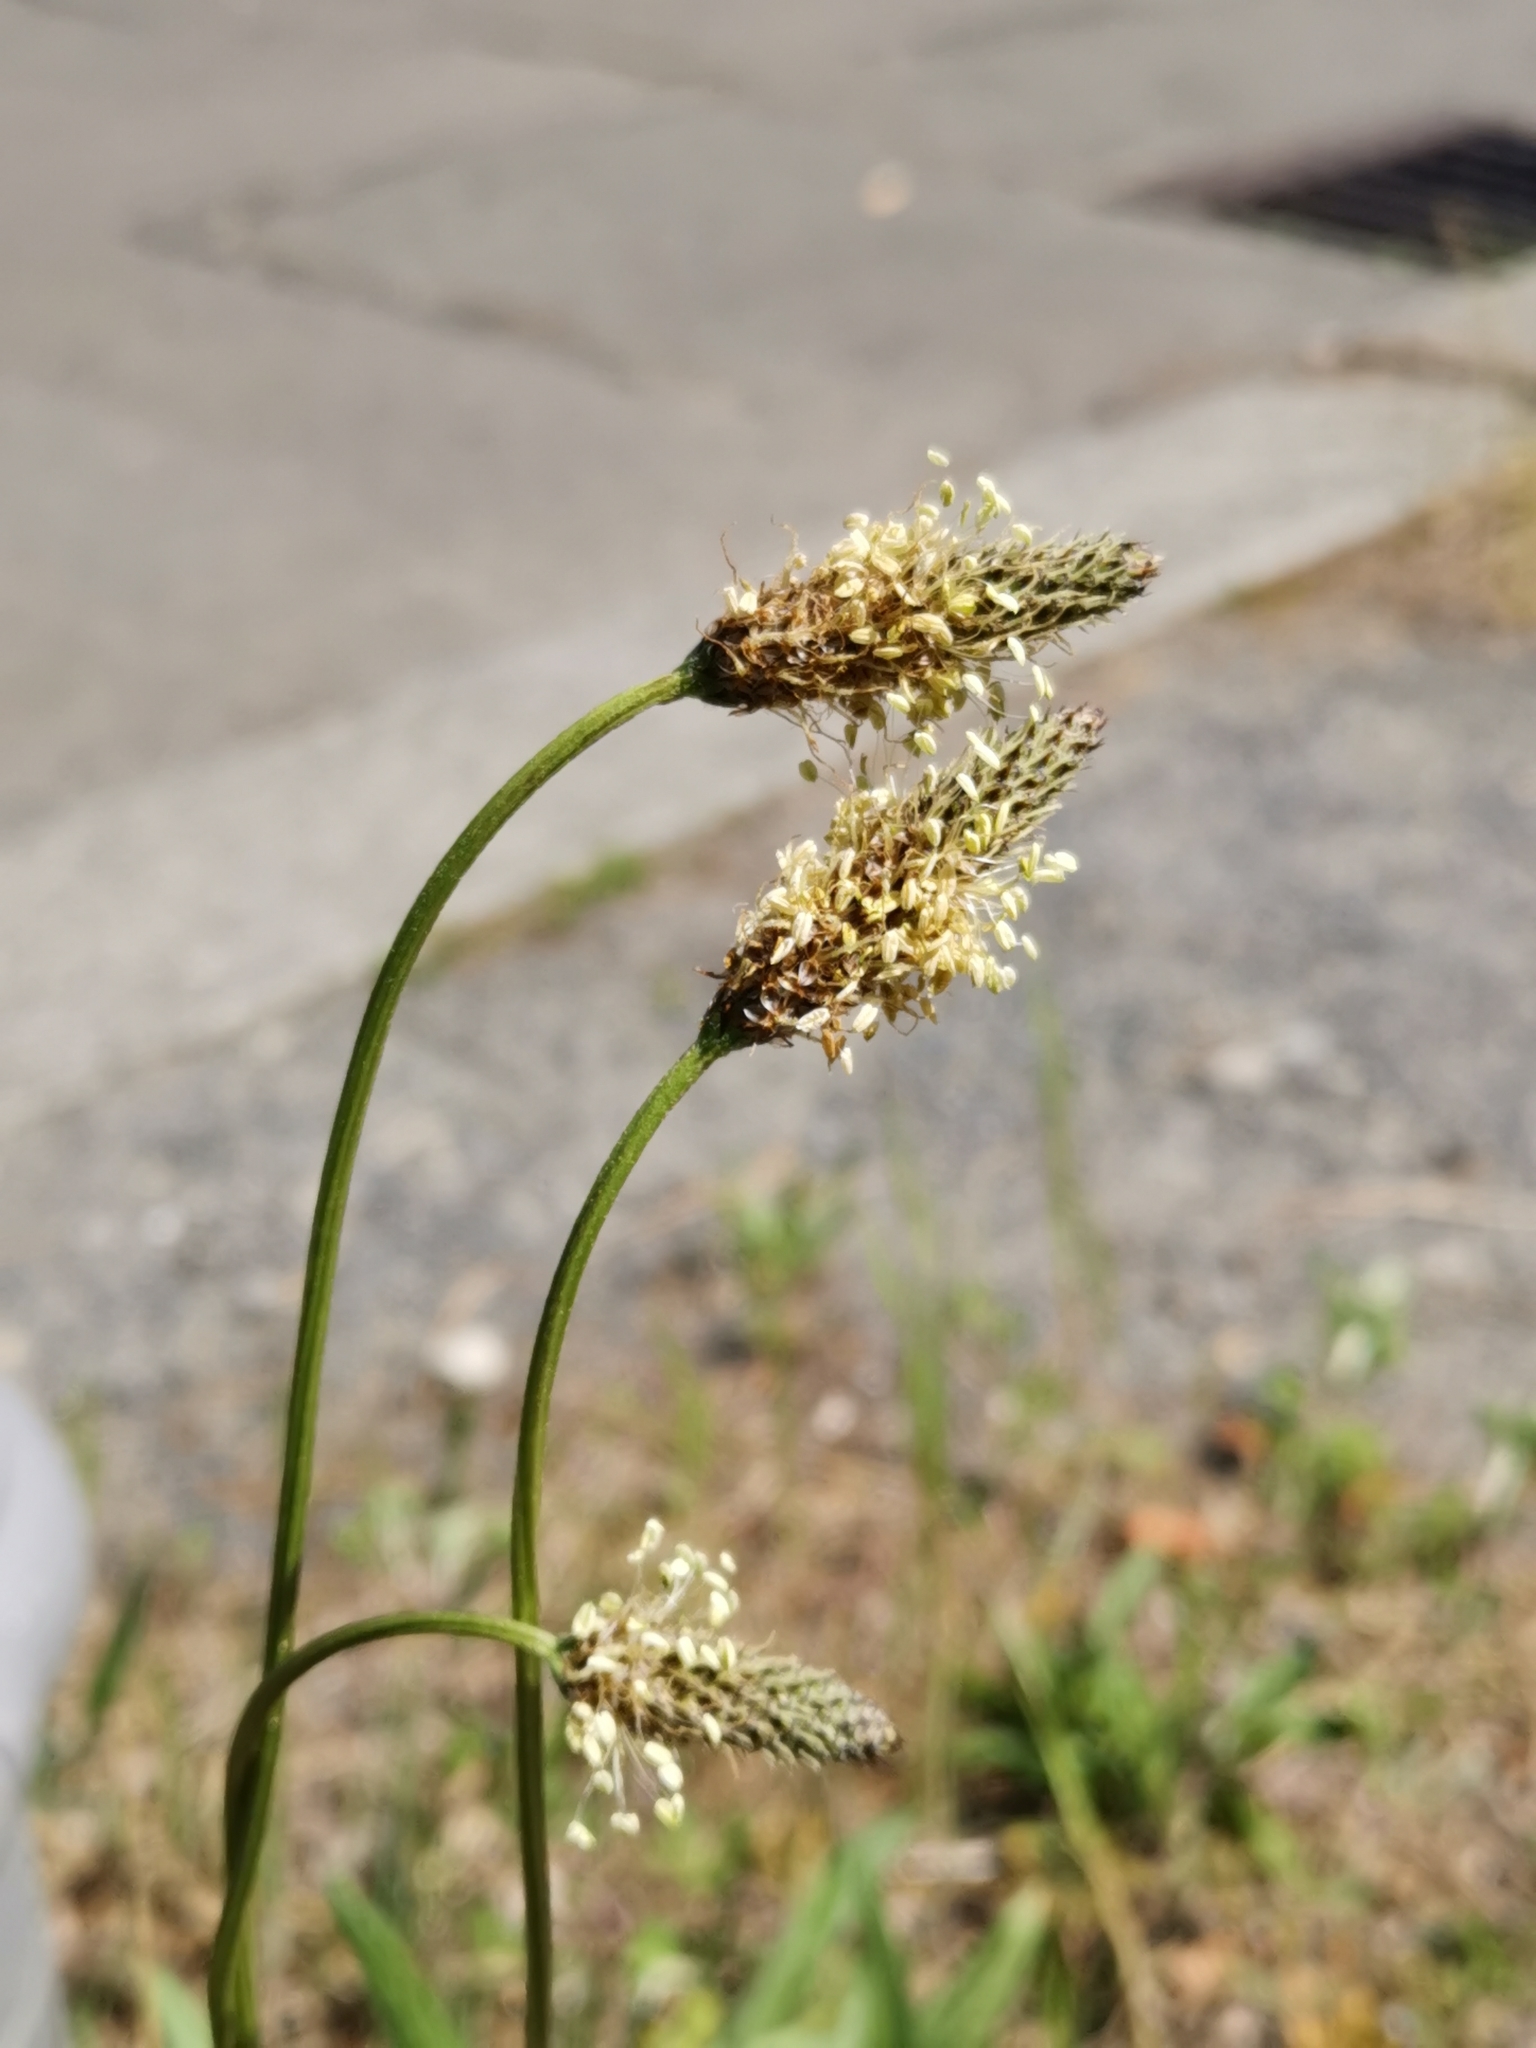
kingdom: Plantae
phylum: Tracheophyta
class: Magnoliopsida
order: Lamiales
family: Plantaginaceae
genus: Plantago
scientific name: Plantago lanceolata
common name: Ribwort plantain
